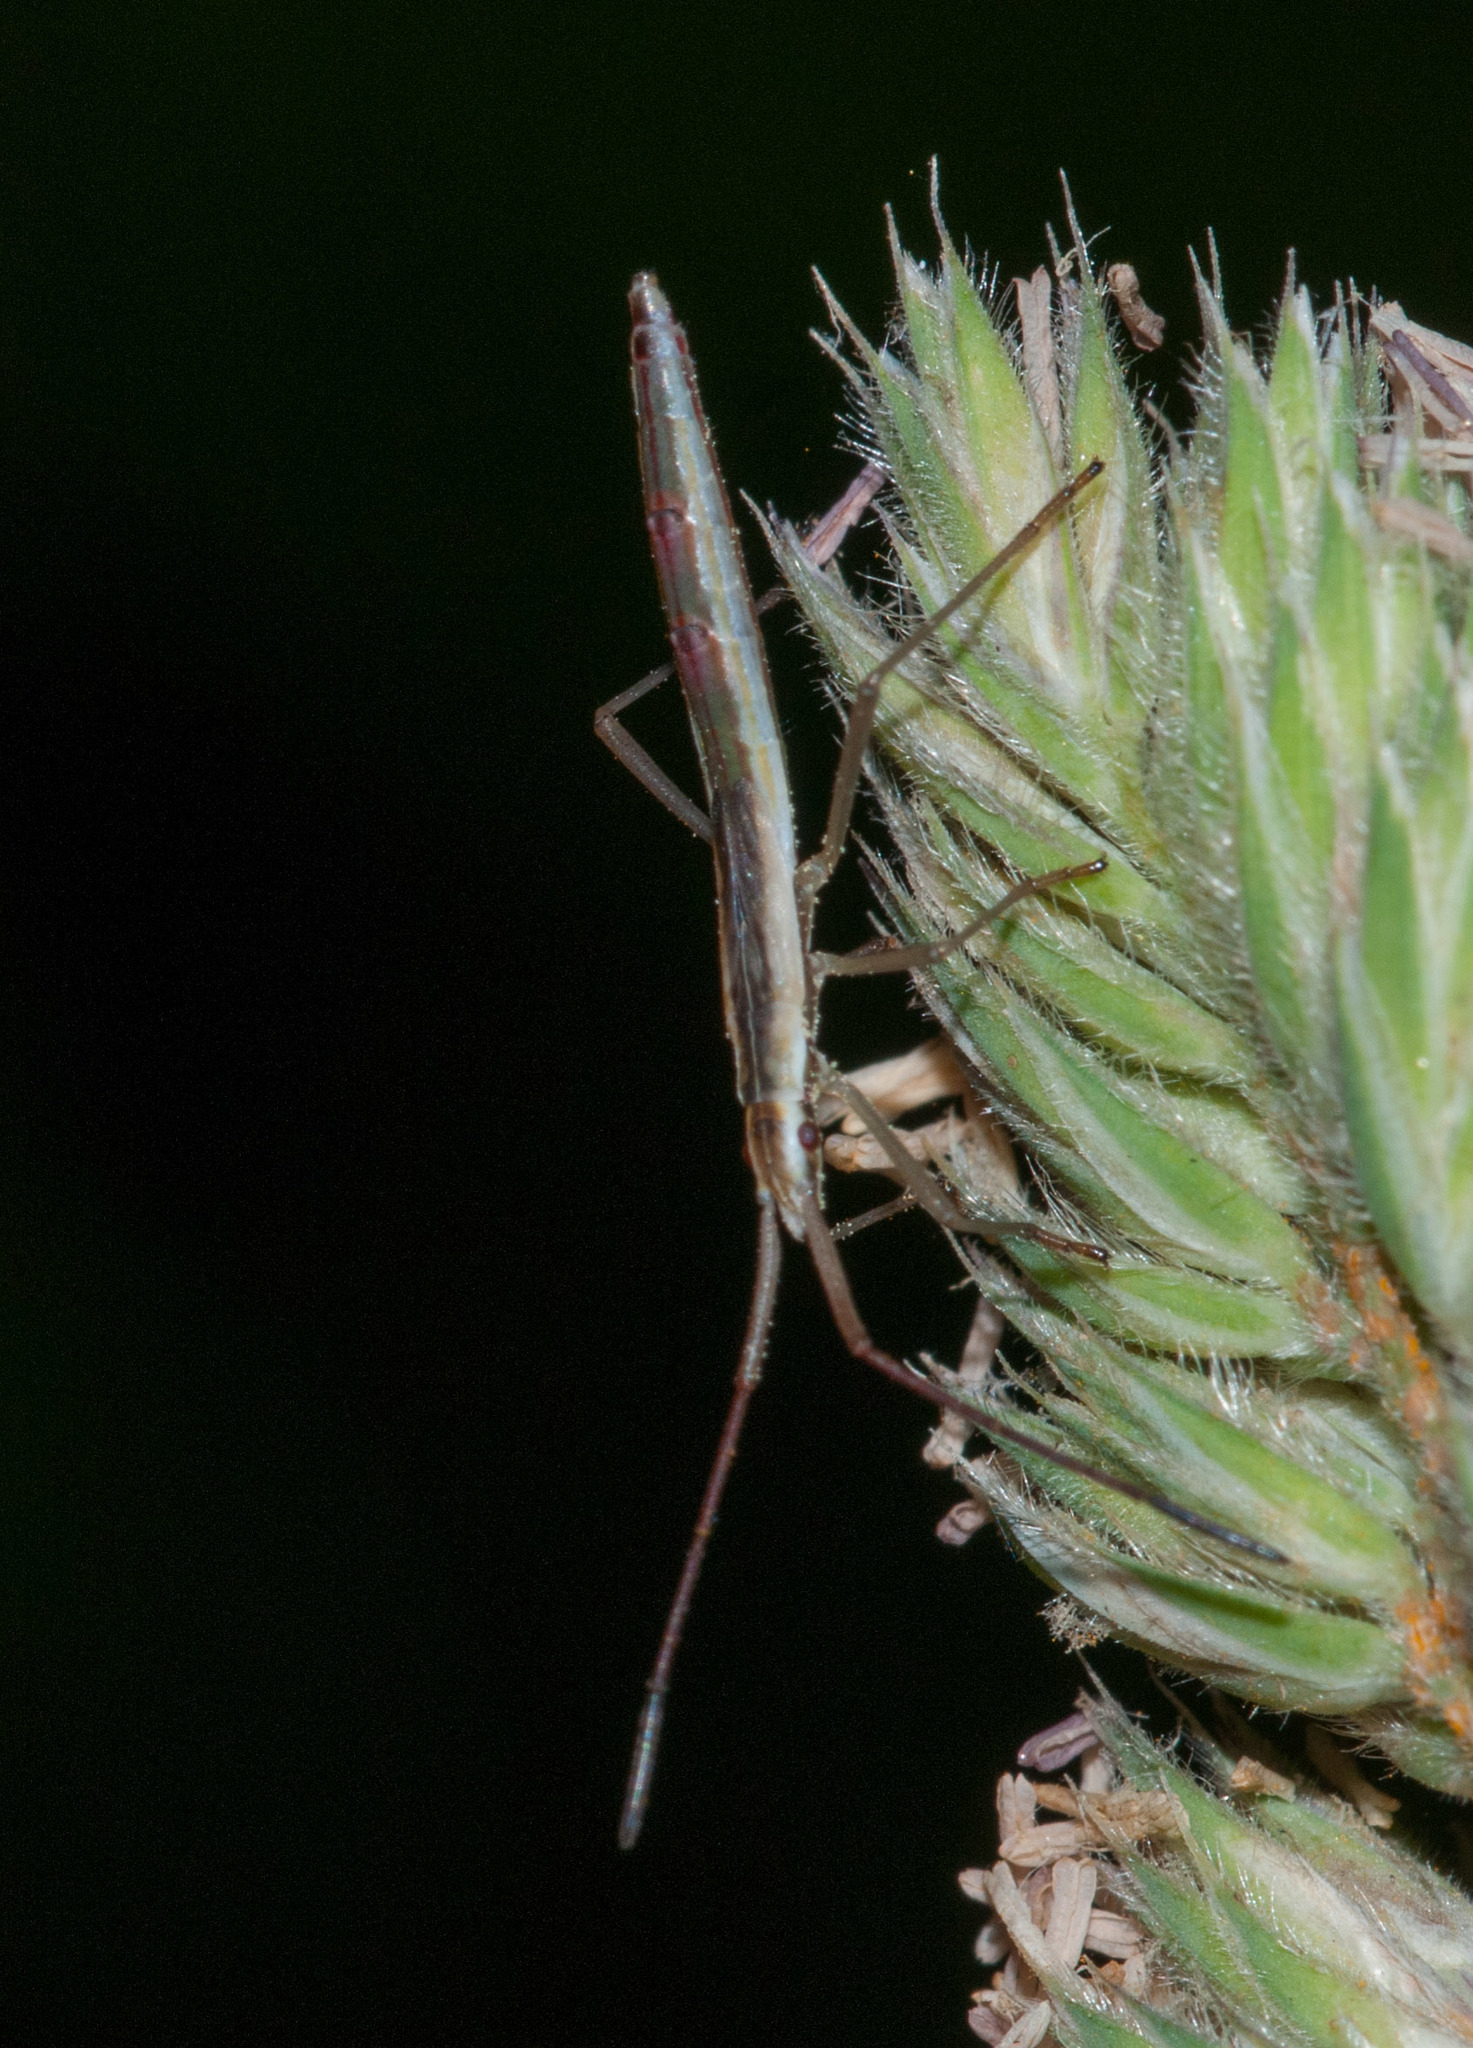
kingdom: Animalia
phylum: Arthropoda
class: Insecta
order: Hemiptera
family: Alydidae
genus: Mutusca
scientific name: Mutusca brevicornis
